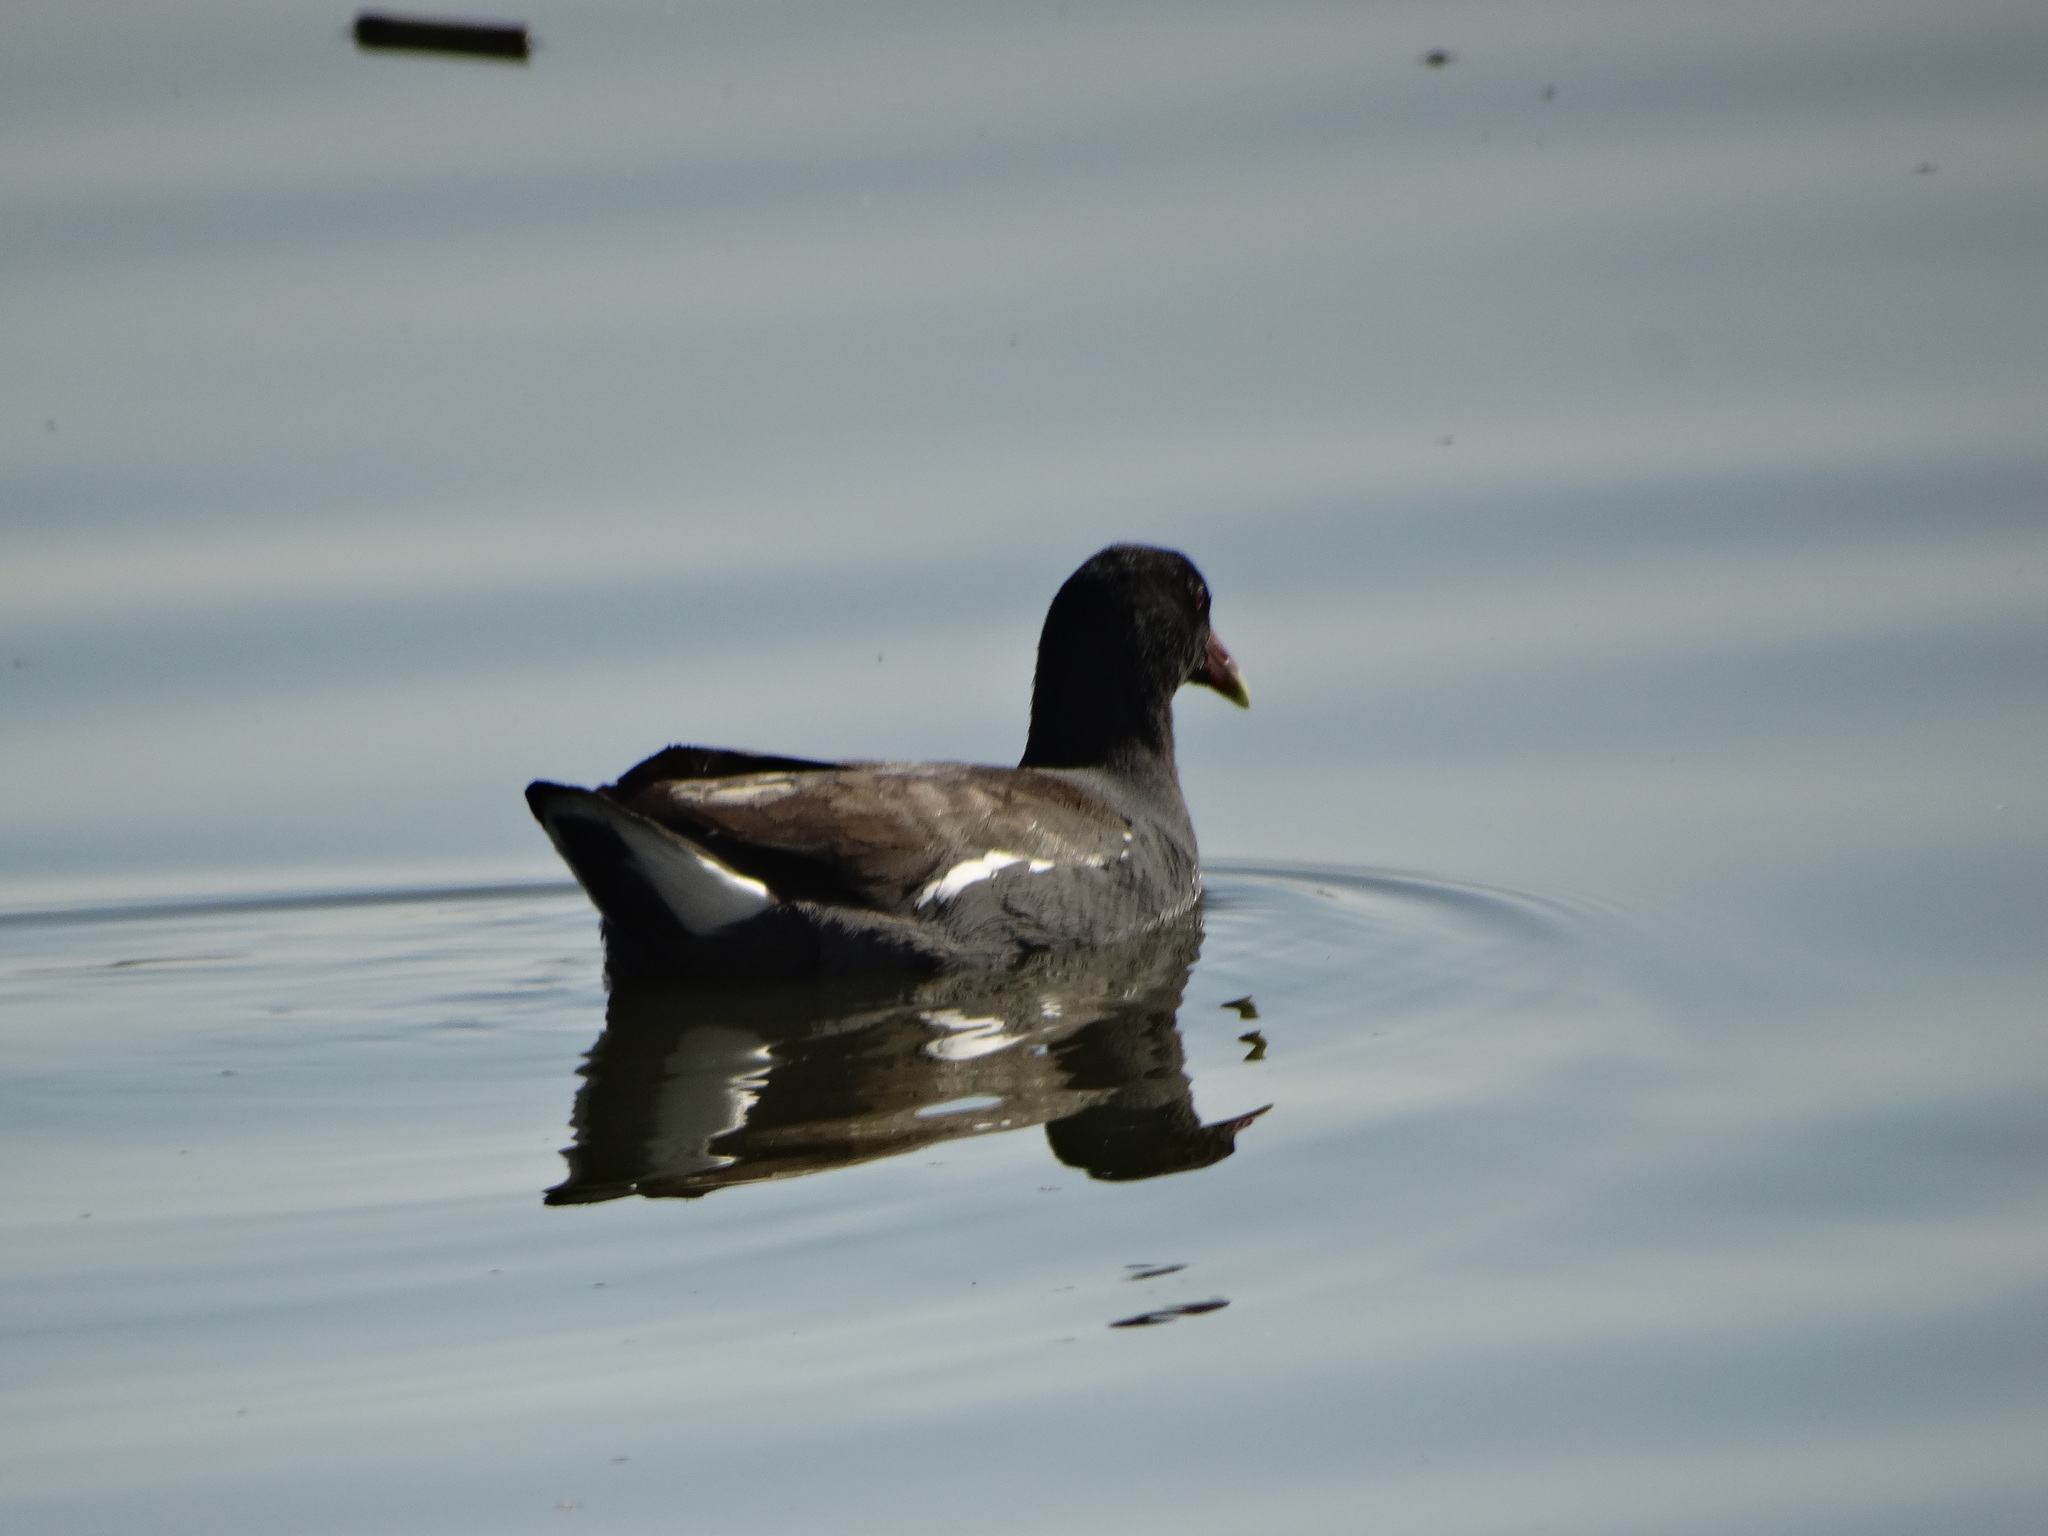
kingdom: Animalia
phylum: Chordata
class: Aves
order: Gruiformes
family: Rallidae
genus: Gallinula
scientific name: Gallinula chloropus
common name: Common moorhen
